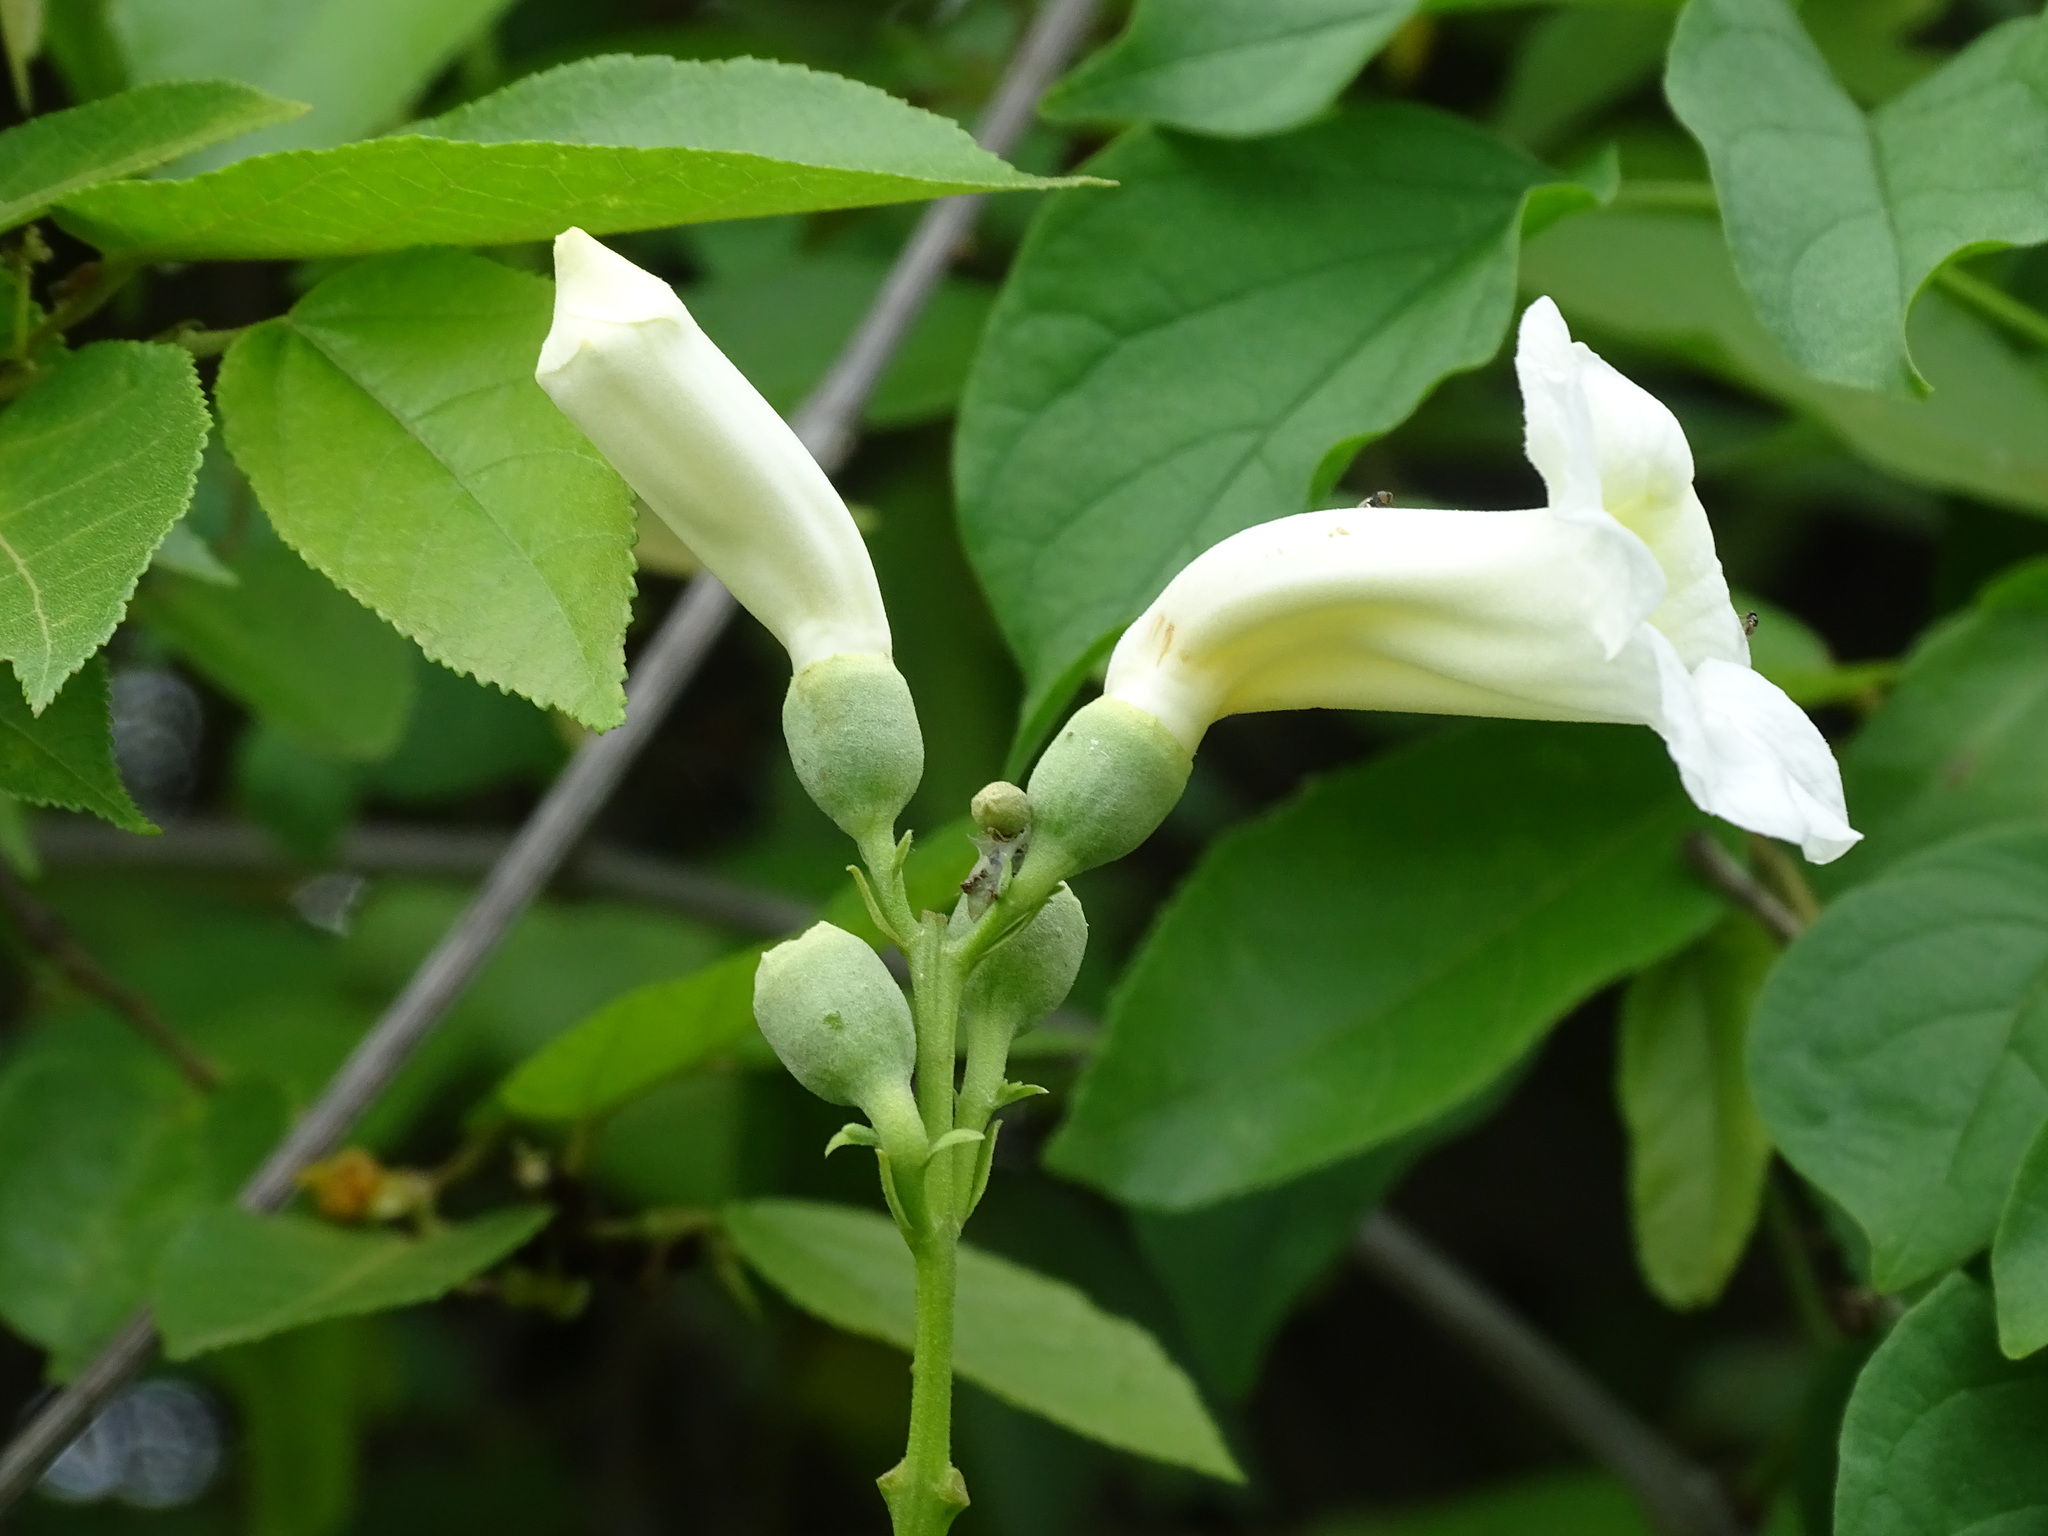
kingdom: Plantae
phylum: Tracheophyta
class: Magnoliopsida
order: Lamiales
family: Bignoniaceae
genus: Amphilophium
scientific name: Amphilophium crucigerum
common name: Monkey comb
